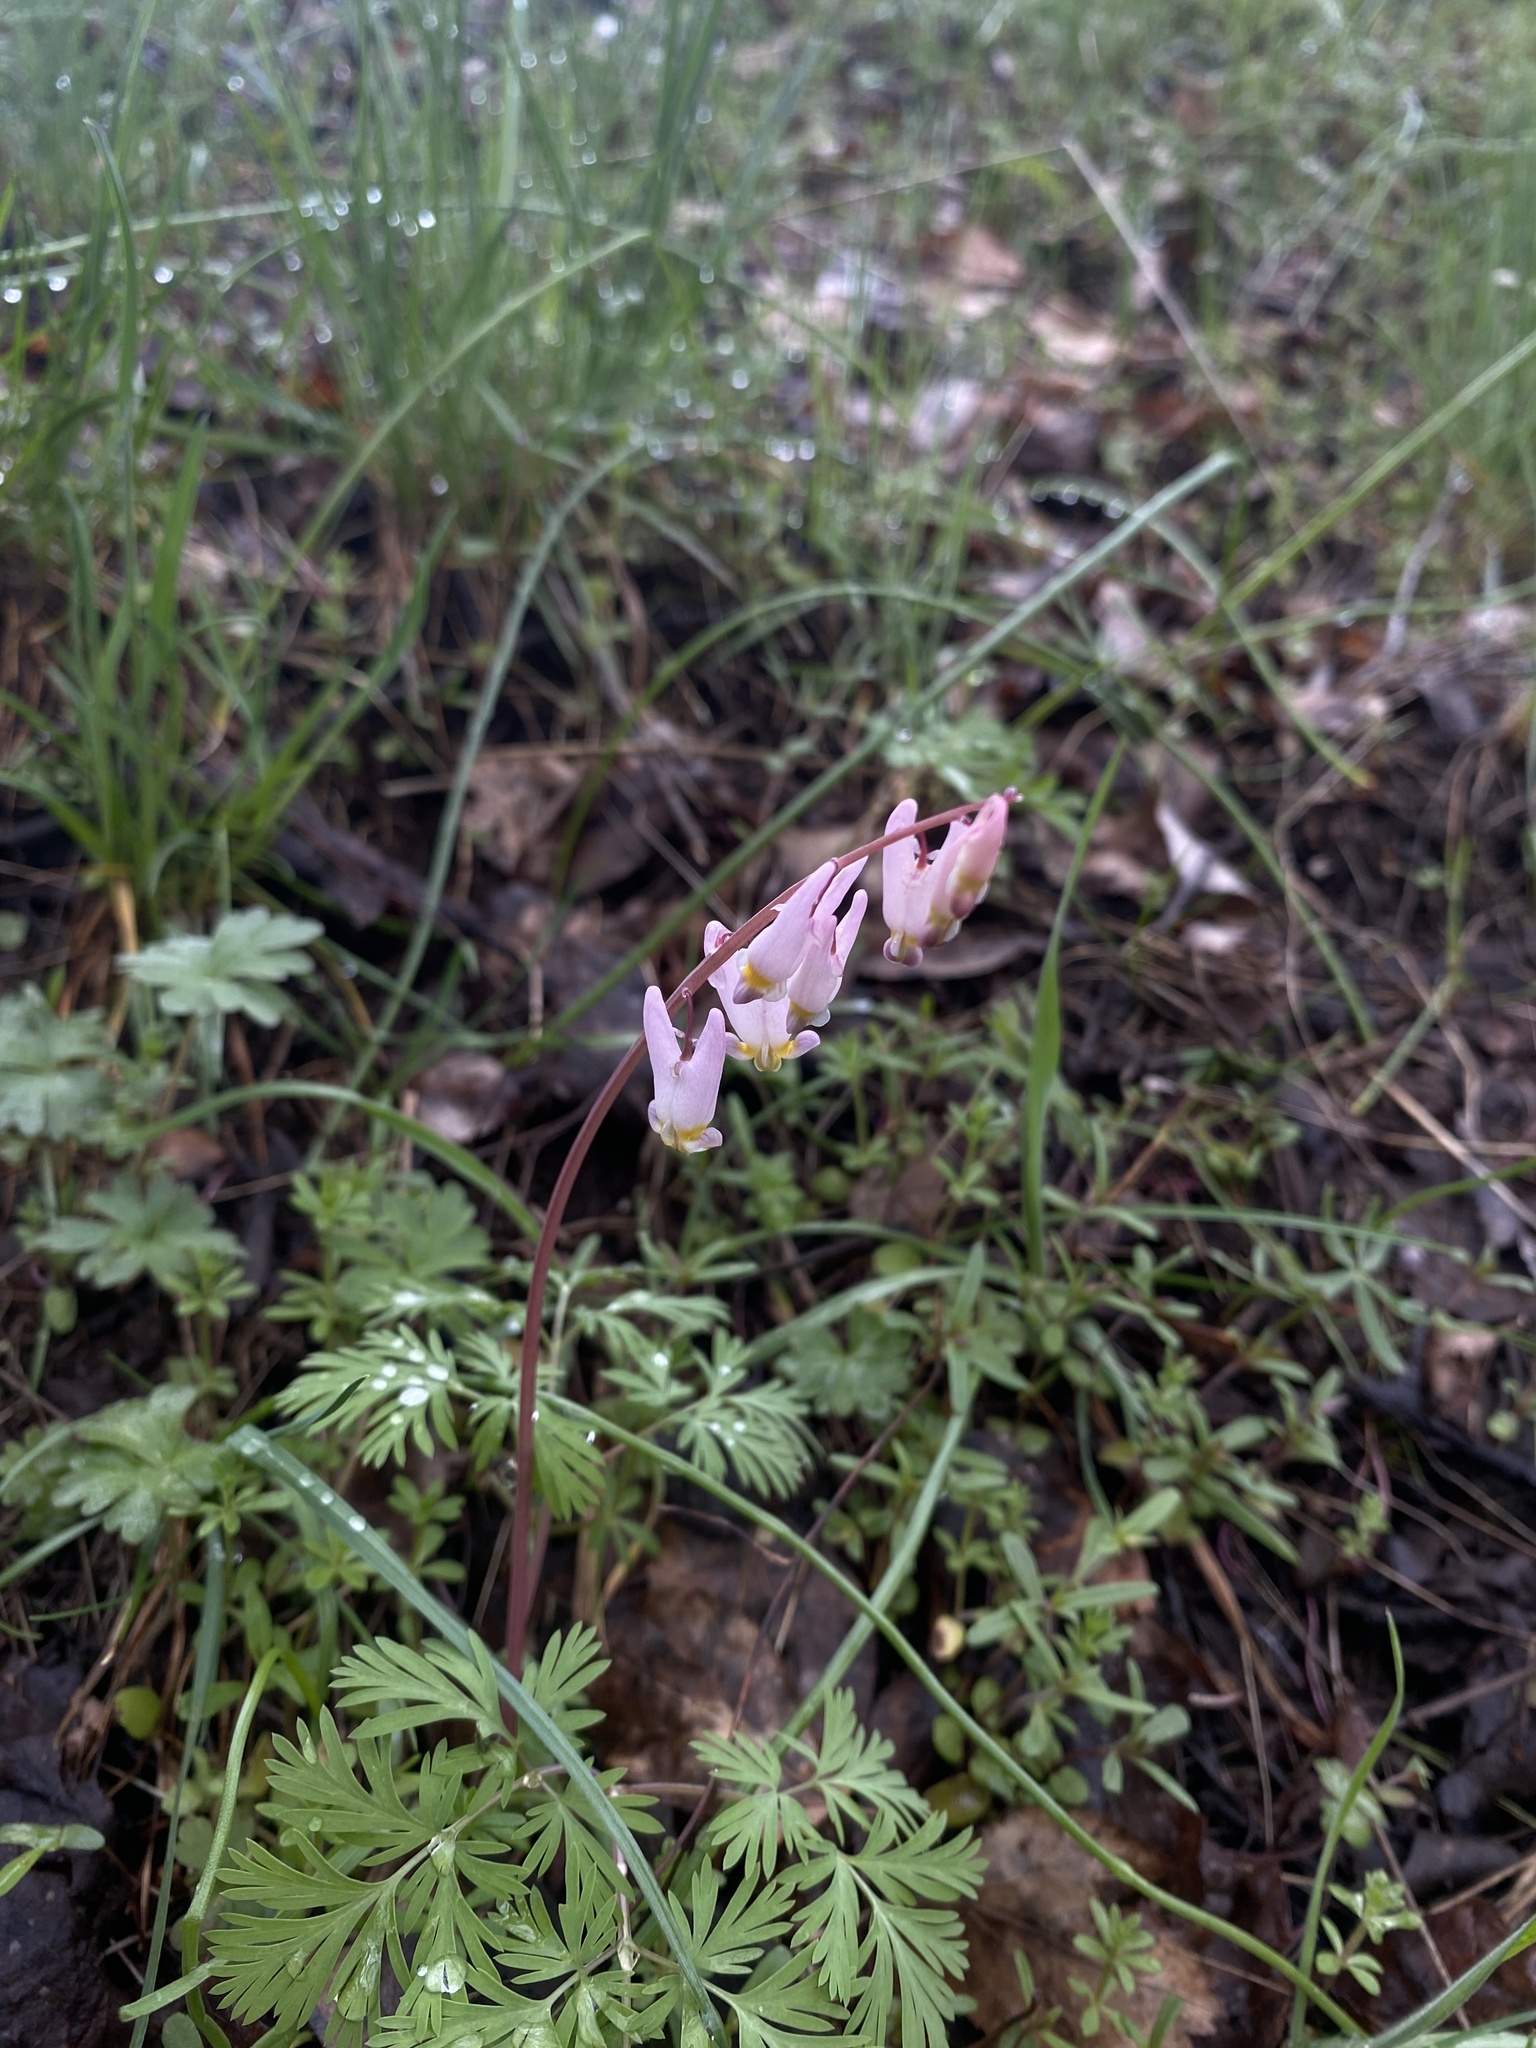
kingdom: Plantae
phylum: Tracheophyta
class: Magnoliopsida
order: Ranunculales
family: Papaveraceae
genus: Dicentra
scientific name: Dicentra cucullaria
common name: Dutchman's breeches
